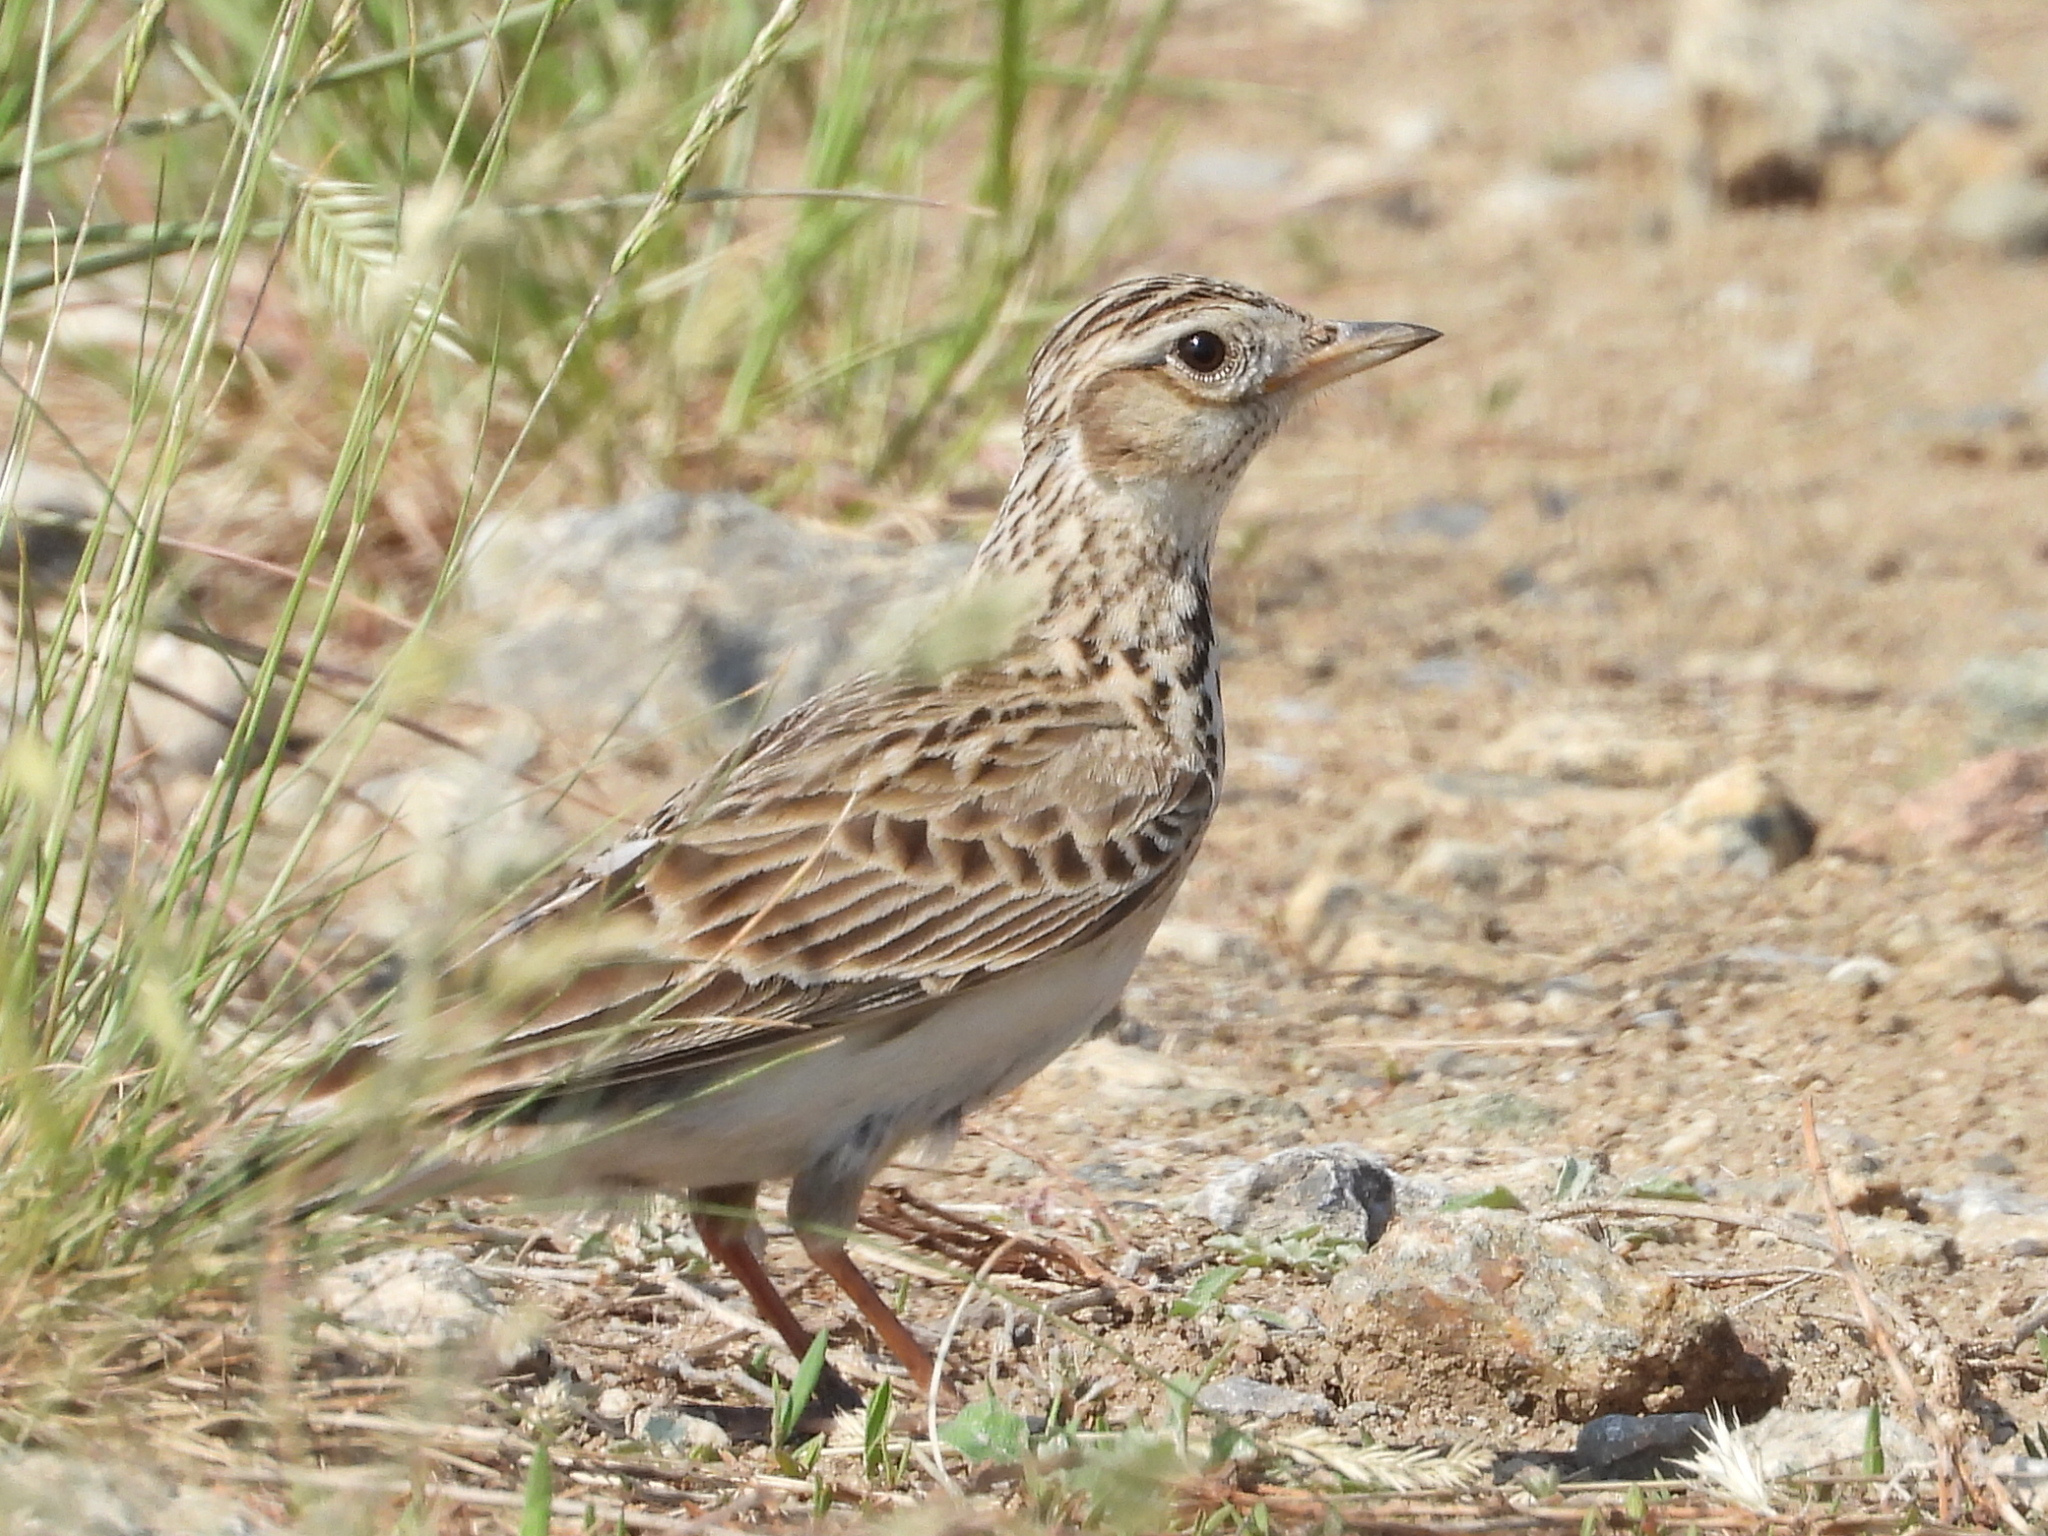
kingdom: Animalia
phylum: Chordata
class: Aves
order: Passeriformes
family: Alaudidae
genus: Alauda
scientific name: Alauda arvensis
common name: Eurasian skylark
